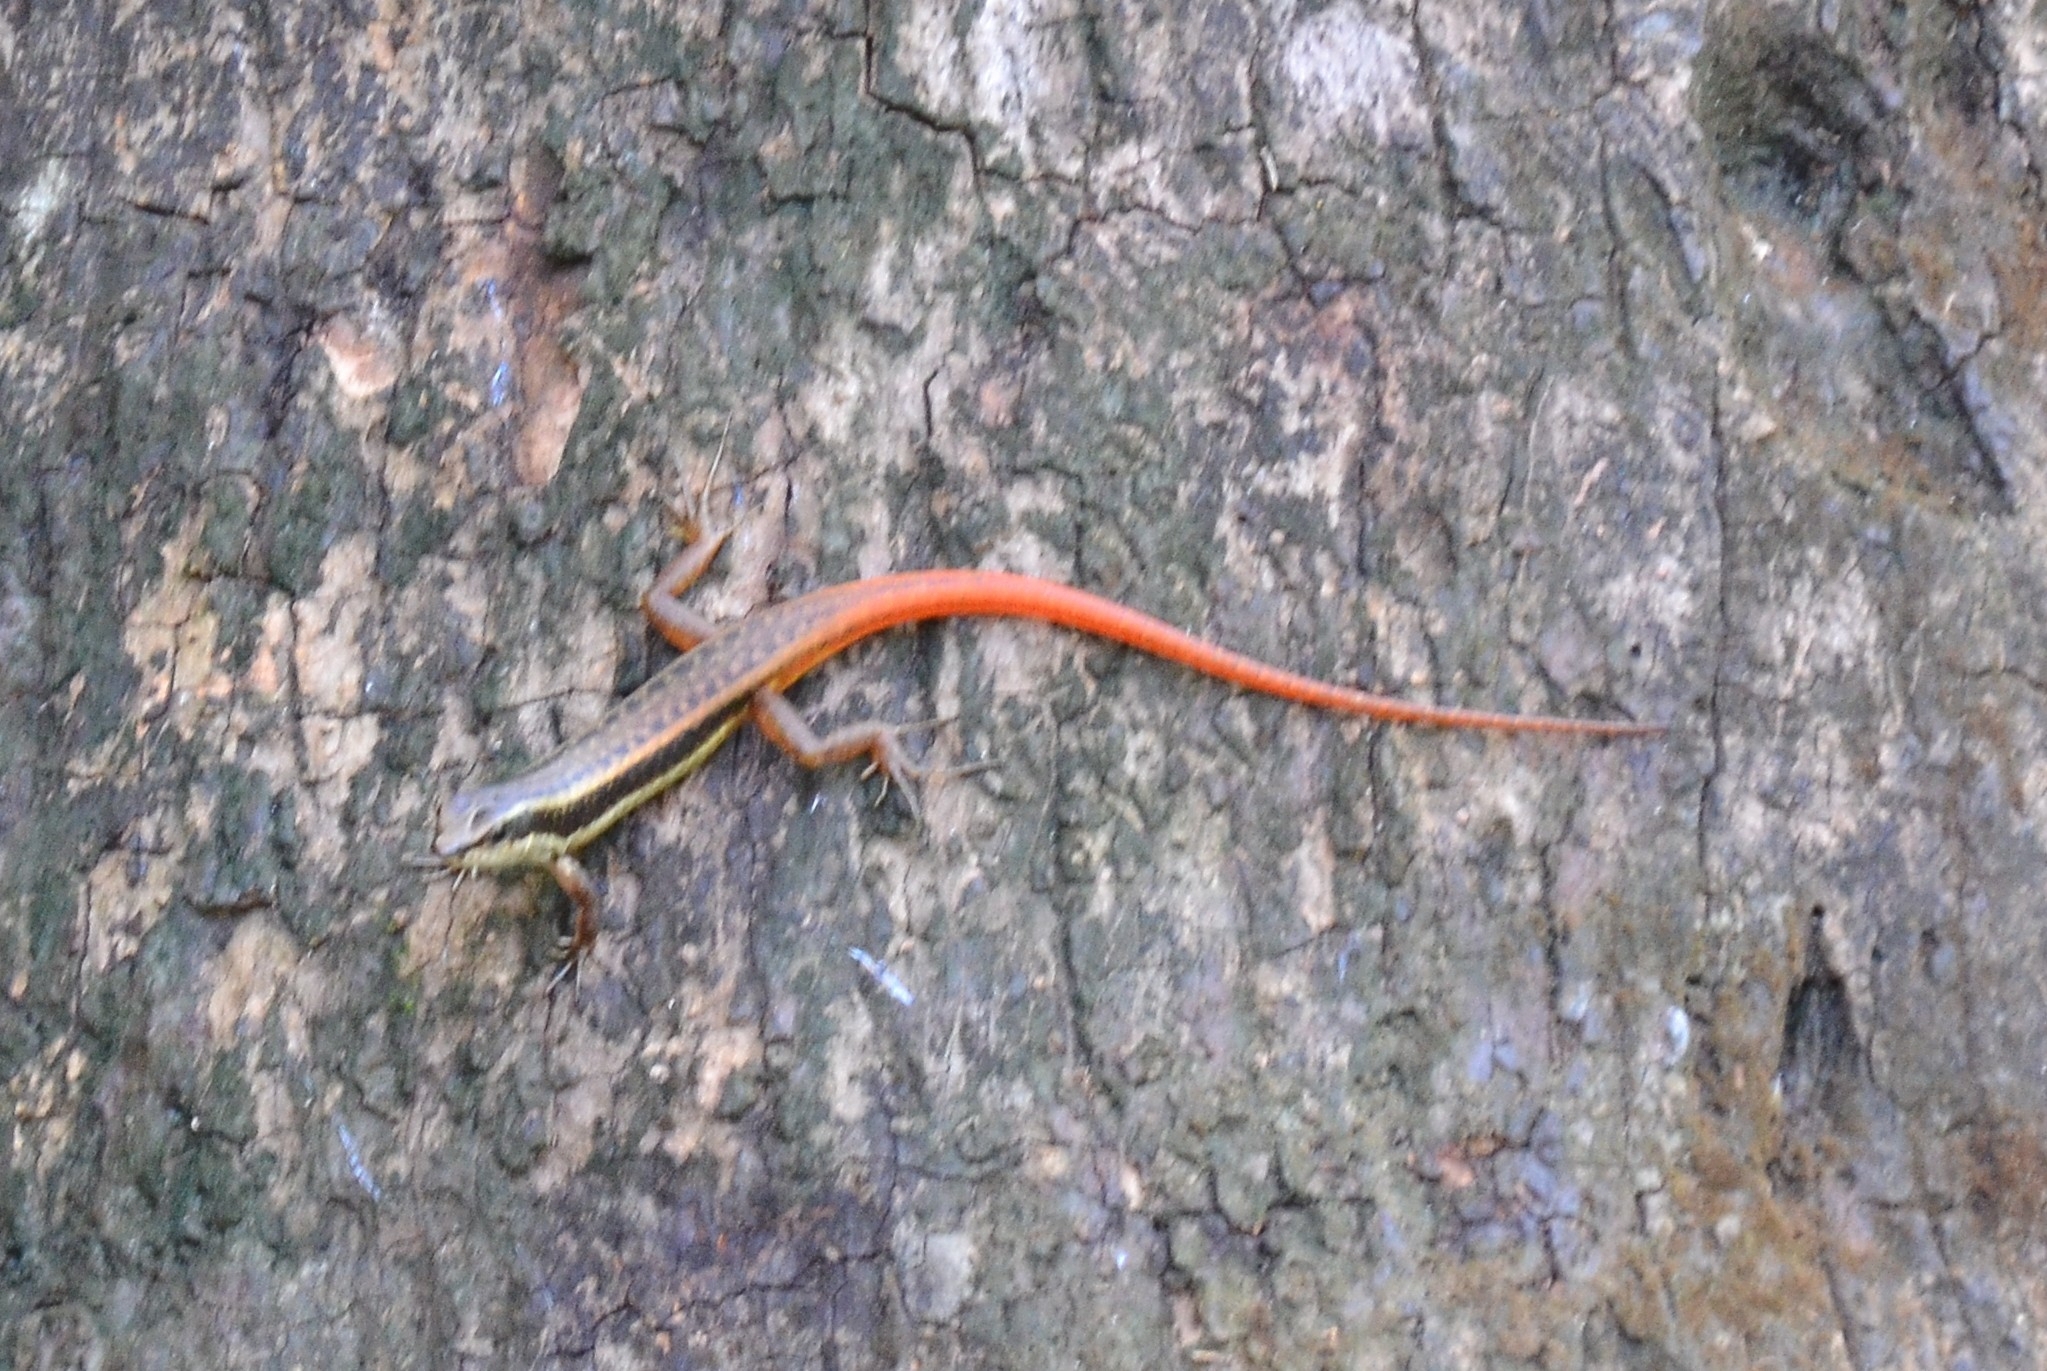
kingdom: Animalia
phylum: Chordata
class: Squamata
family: Scincidae
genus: Sphenomorphus
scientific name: Sphenomorphus dussumieri
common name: Dussumier's forest skink
